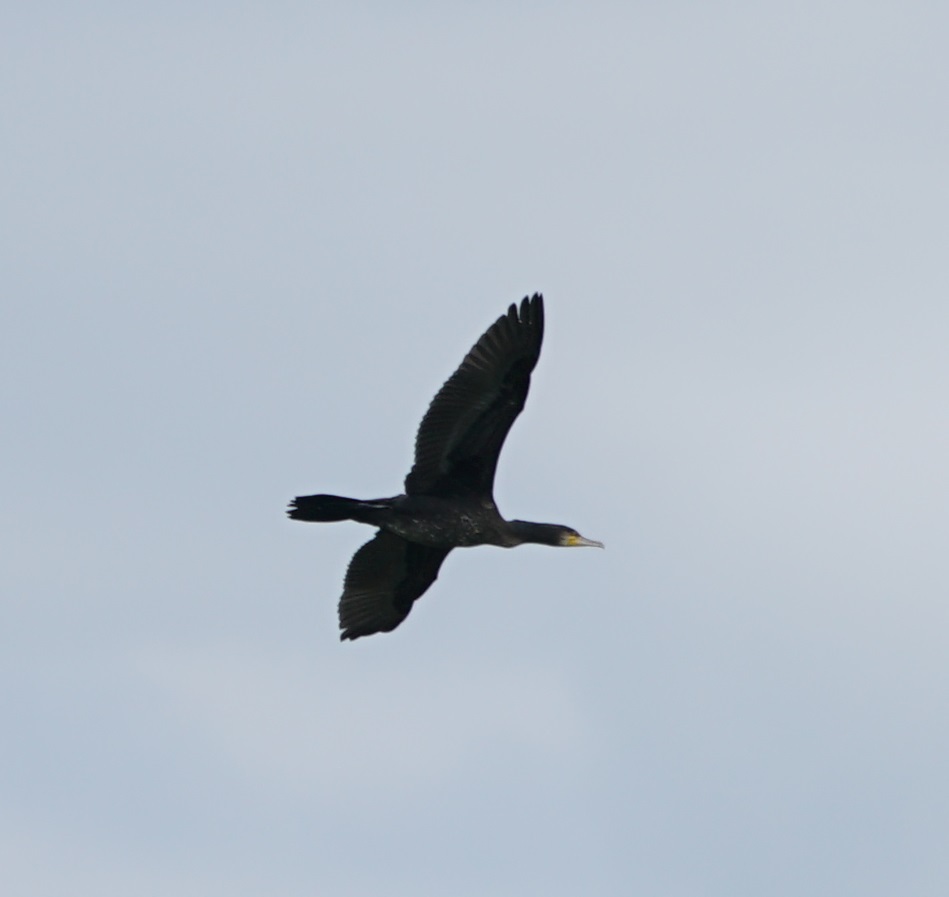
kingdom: Animalia
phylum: Chordata
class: Aves
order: Suliformes
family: Phalacrocoracidae
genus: Phalacrocorax
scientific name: Phalacrocorax carbo
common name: Great cormorant
